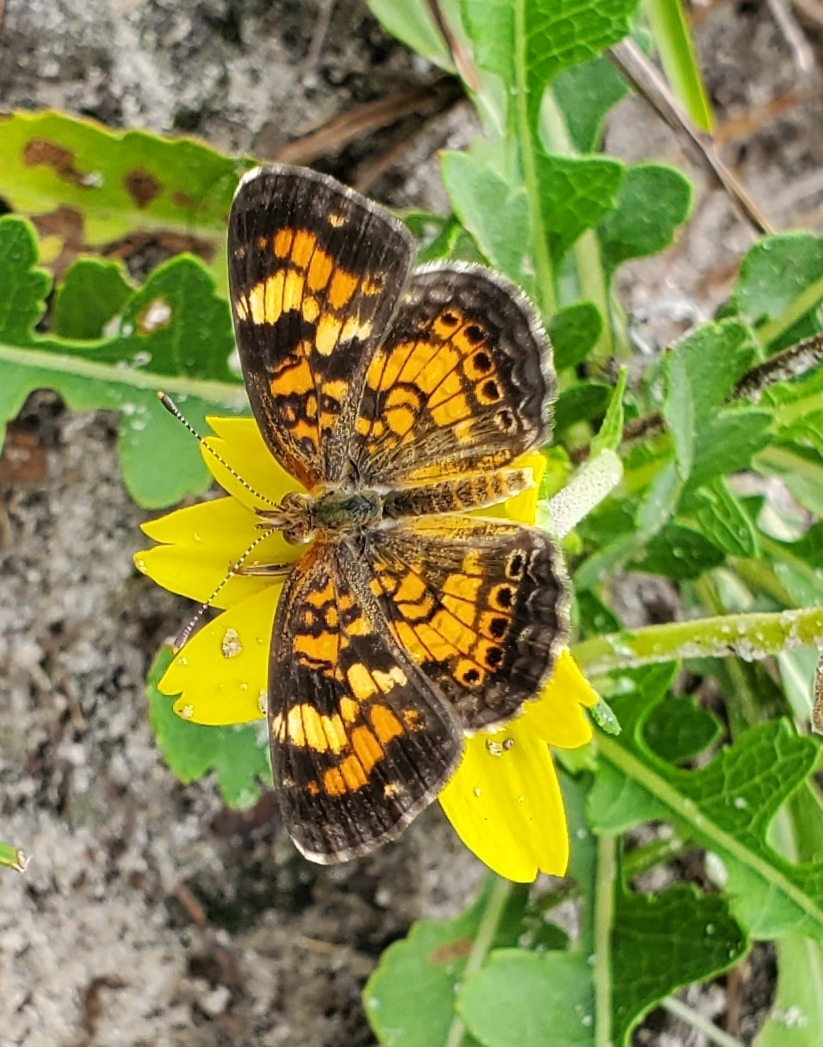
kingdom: Animalia
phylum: Arthropoda
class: Insecta
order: Lepidoptera
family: Nymphalidae
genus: Phyciodes
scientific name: Phyciodes phaon
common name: Phaon crescent
